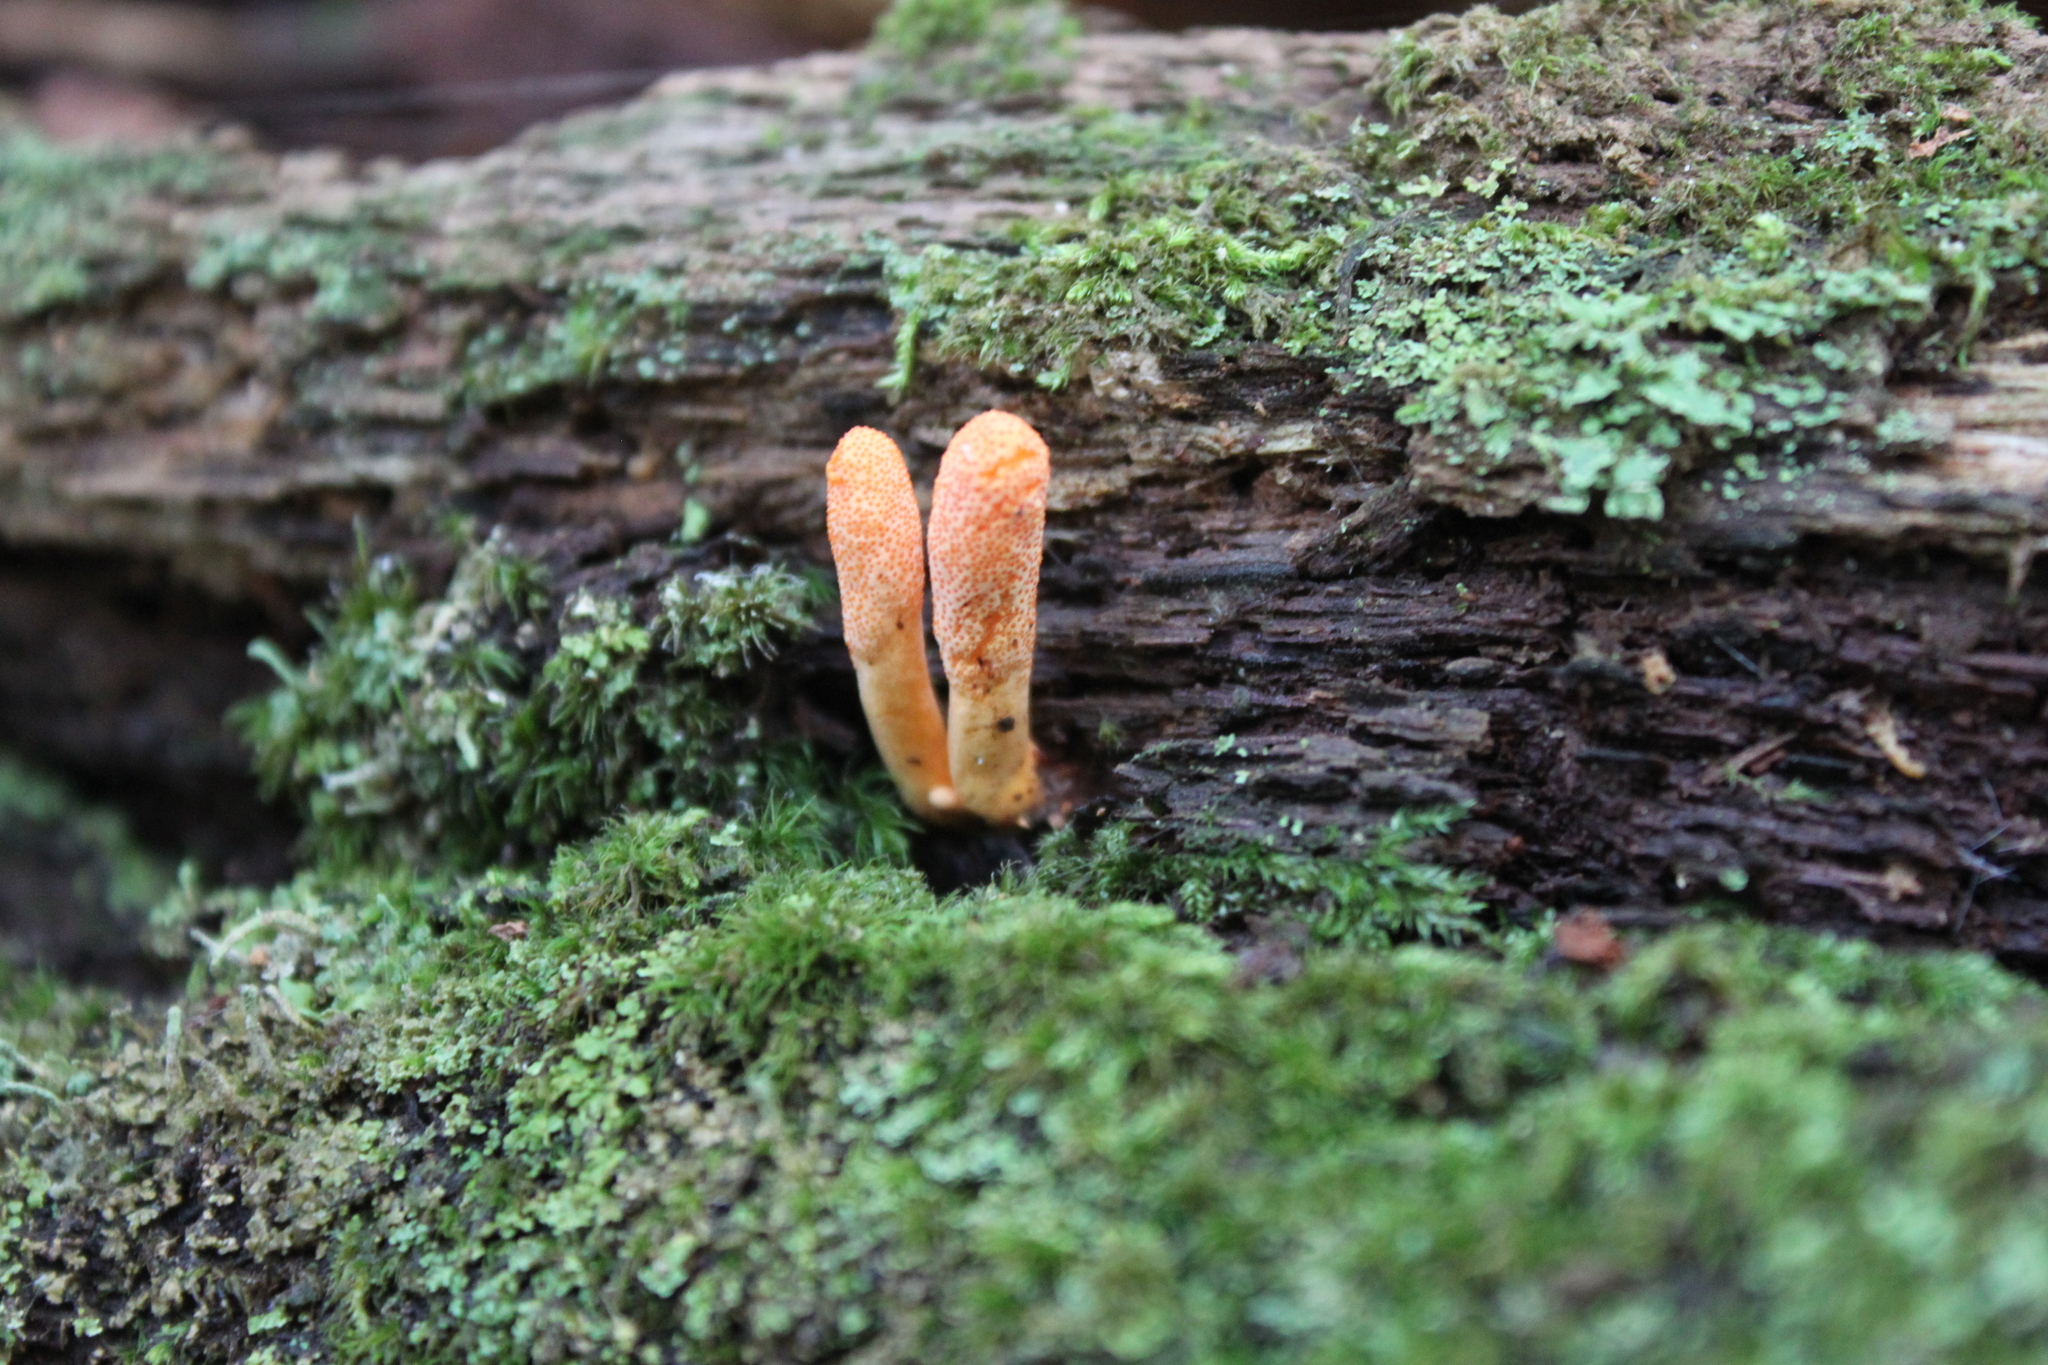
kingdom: Fungi
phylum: Ascomycota
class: Sordariomycetes
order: Hypocreales
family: Cordycipitaceae
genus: Cordyceps
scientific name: Cordyceps militaris
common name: Scarlet caterpillar fungus
